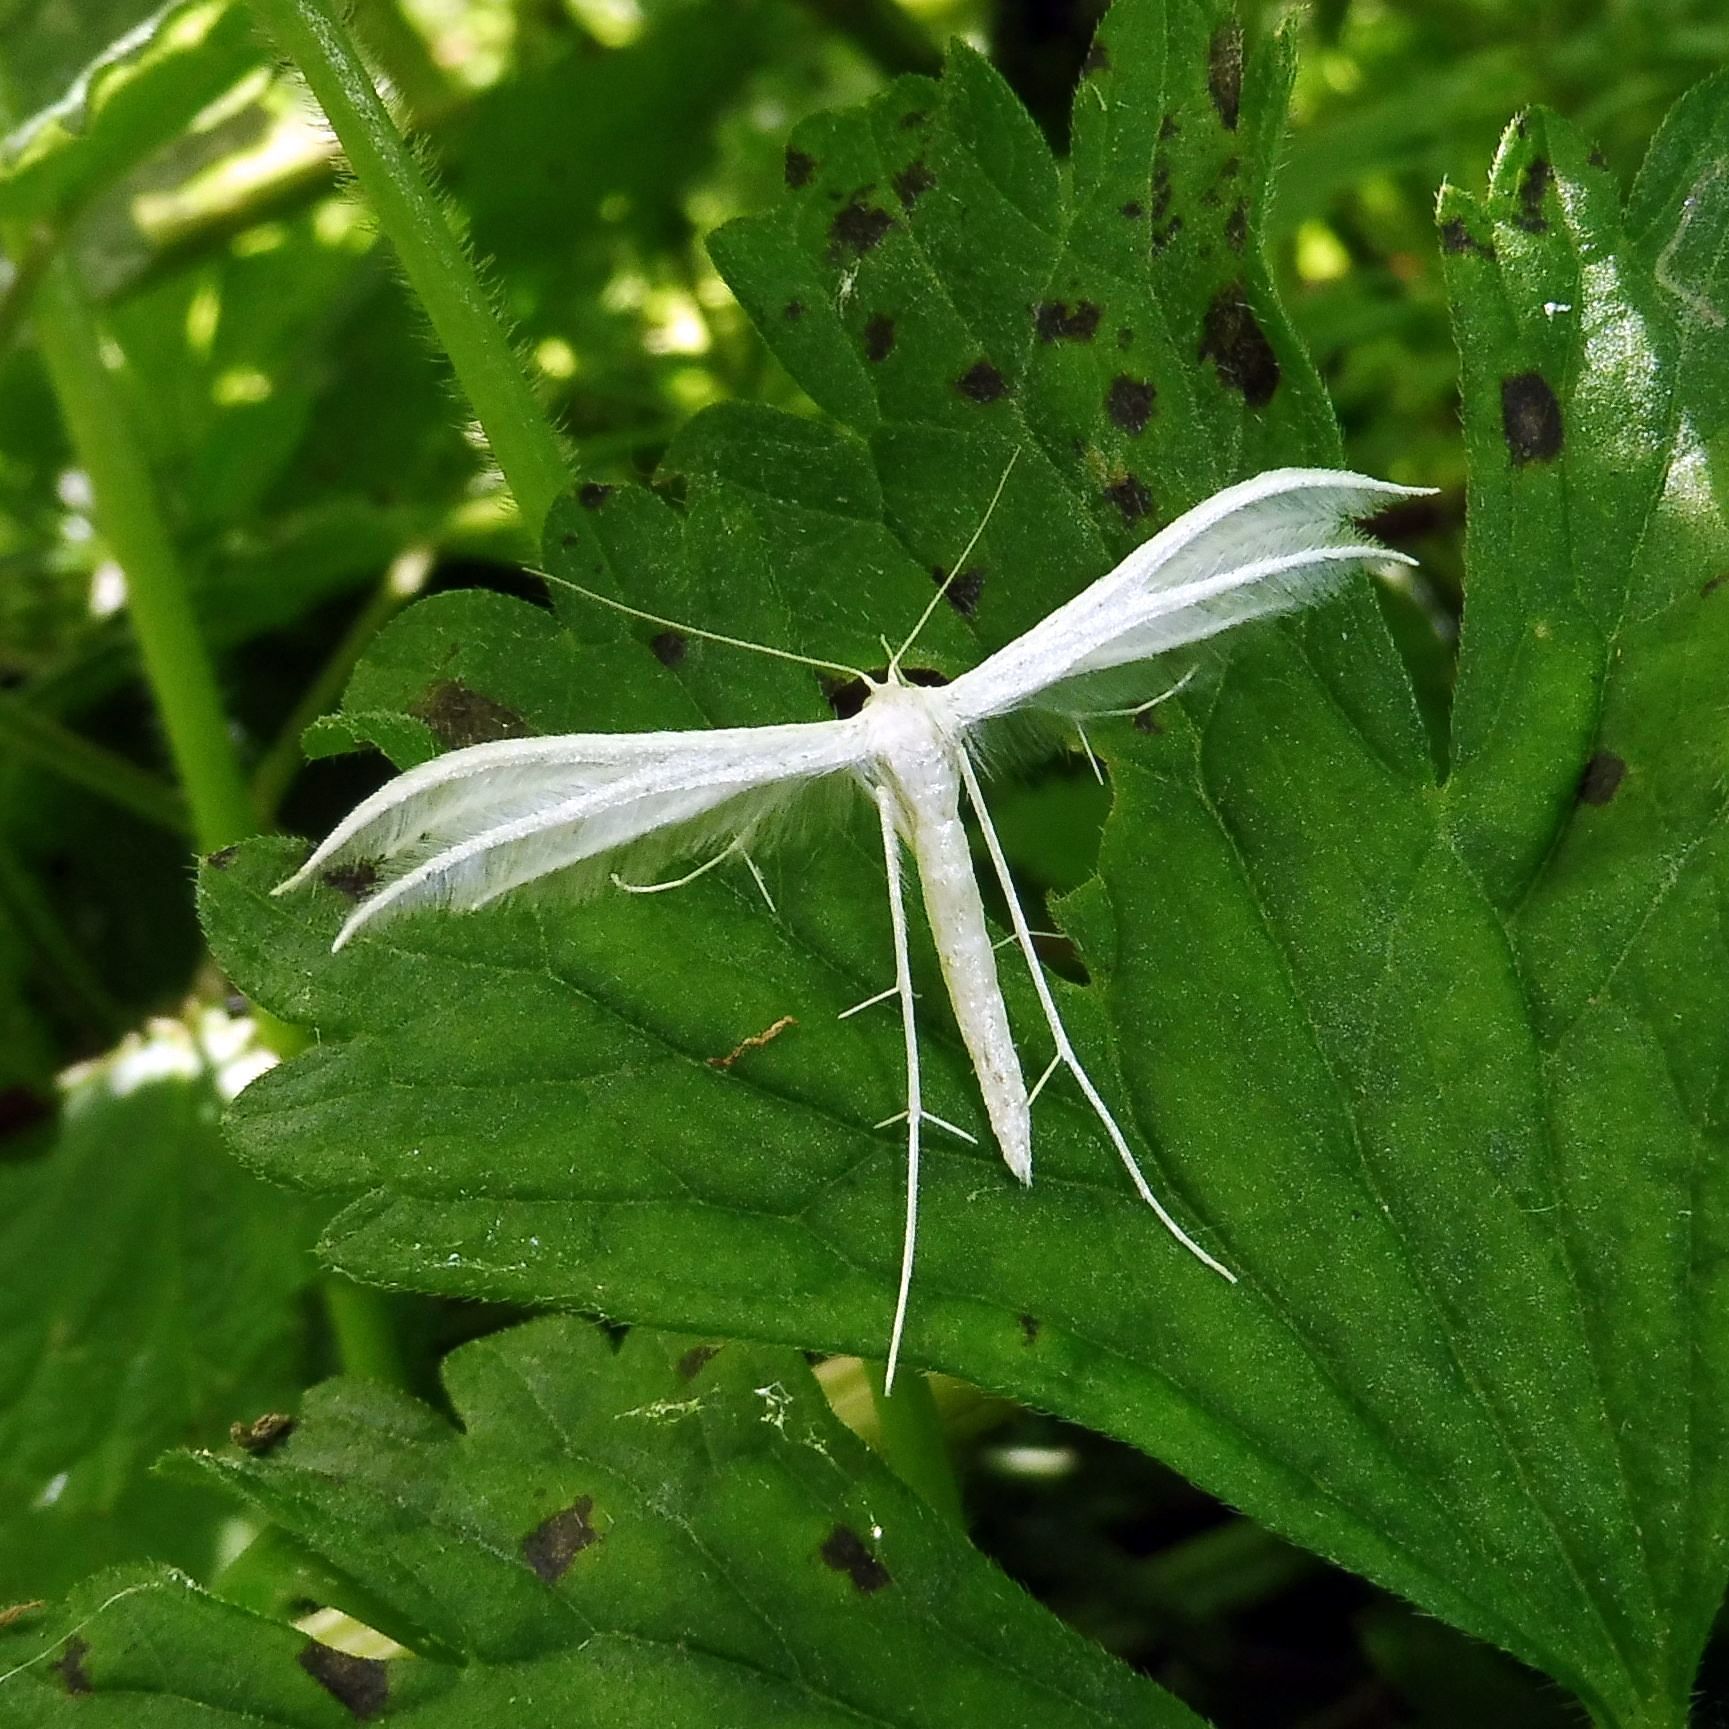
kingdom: Animalia
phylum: Arthropoda
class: Insecta
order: Lepidoptera
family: Pterophoridae
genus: Pterophorus
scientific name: Pterophorus pentadactyla
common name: White plume moth
